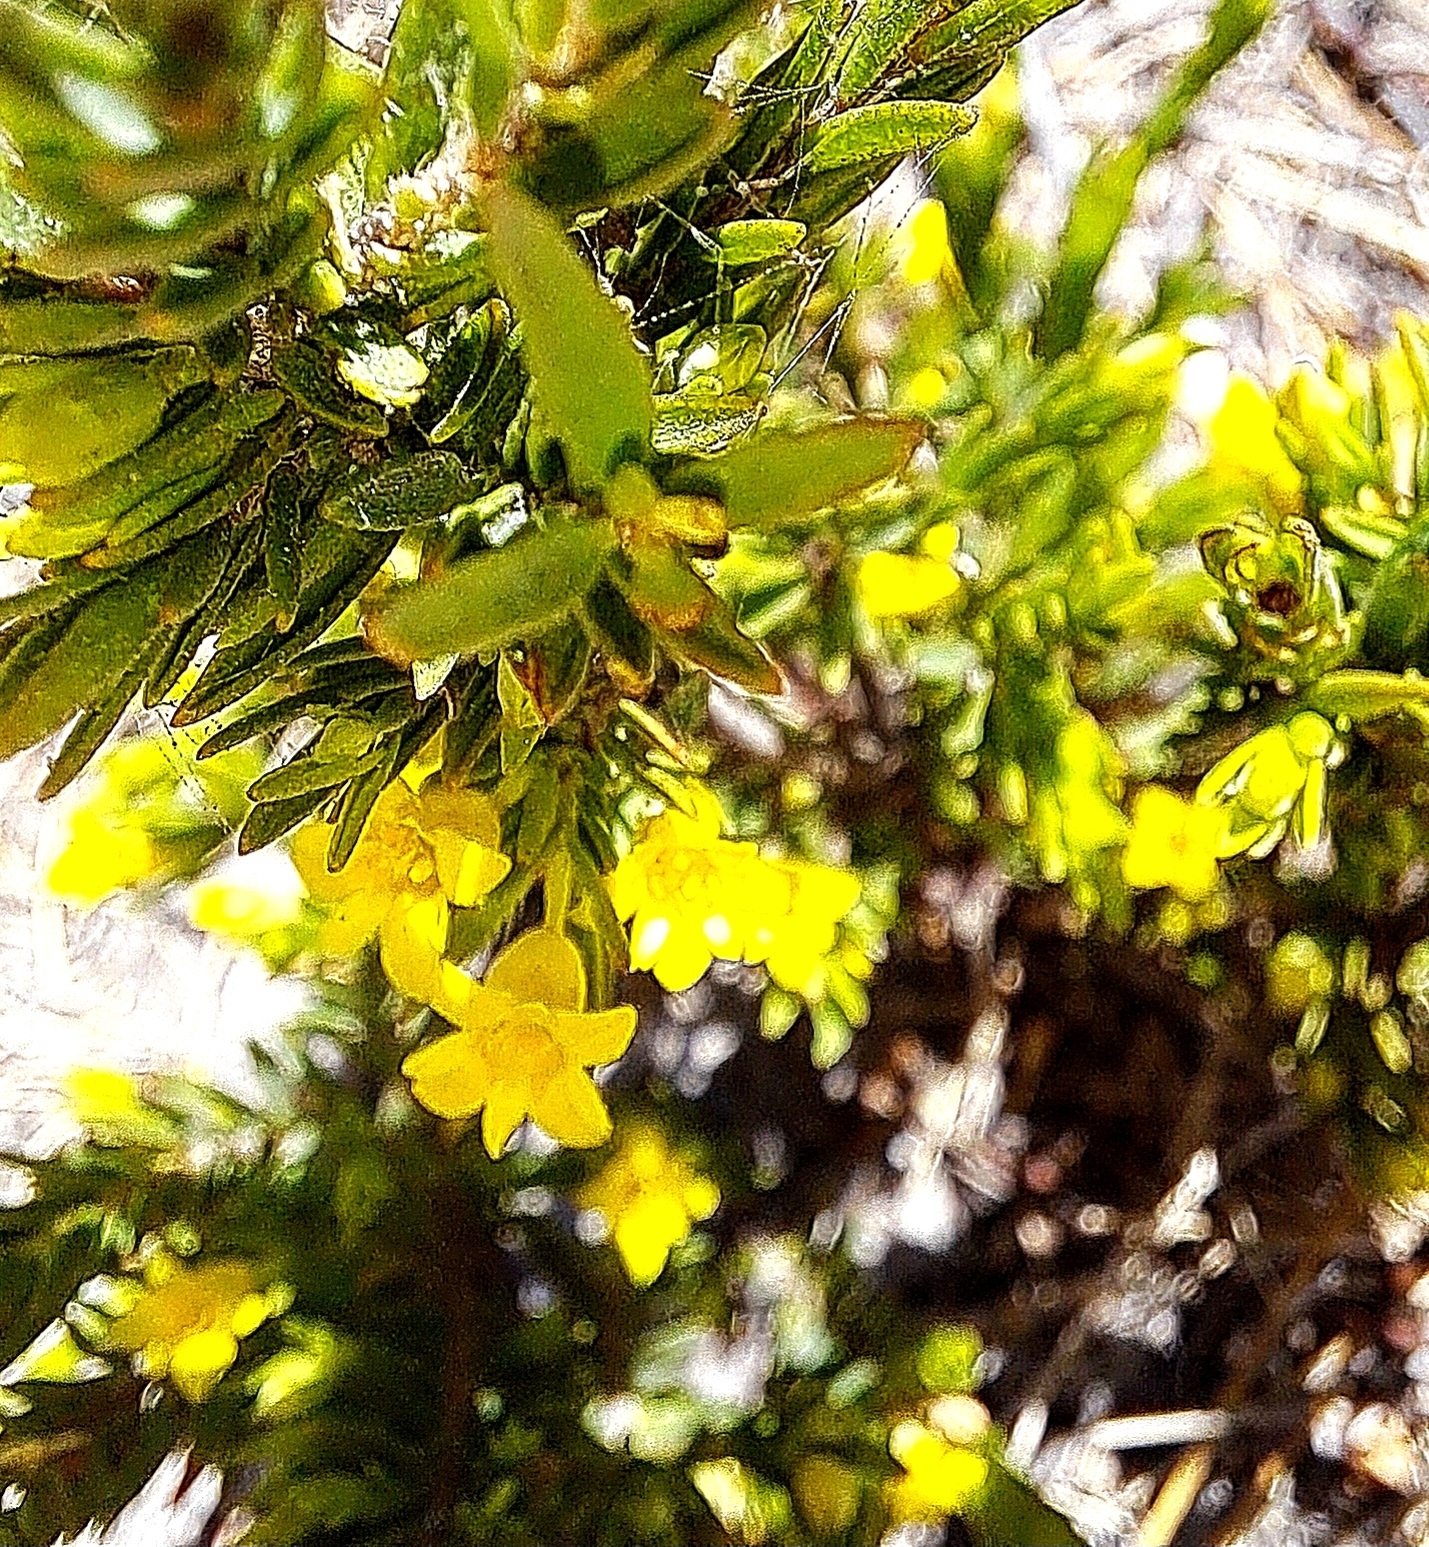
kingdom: Plantae
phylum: Tracheophyta
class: Magnoliopsida
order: Malvales
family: Thymelaeaceae
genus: Gnidia
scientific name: Gnidia juniperifolia
